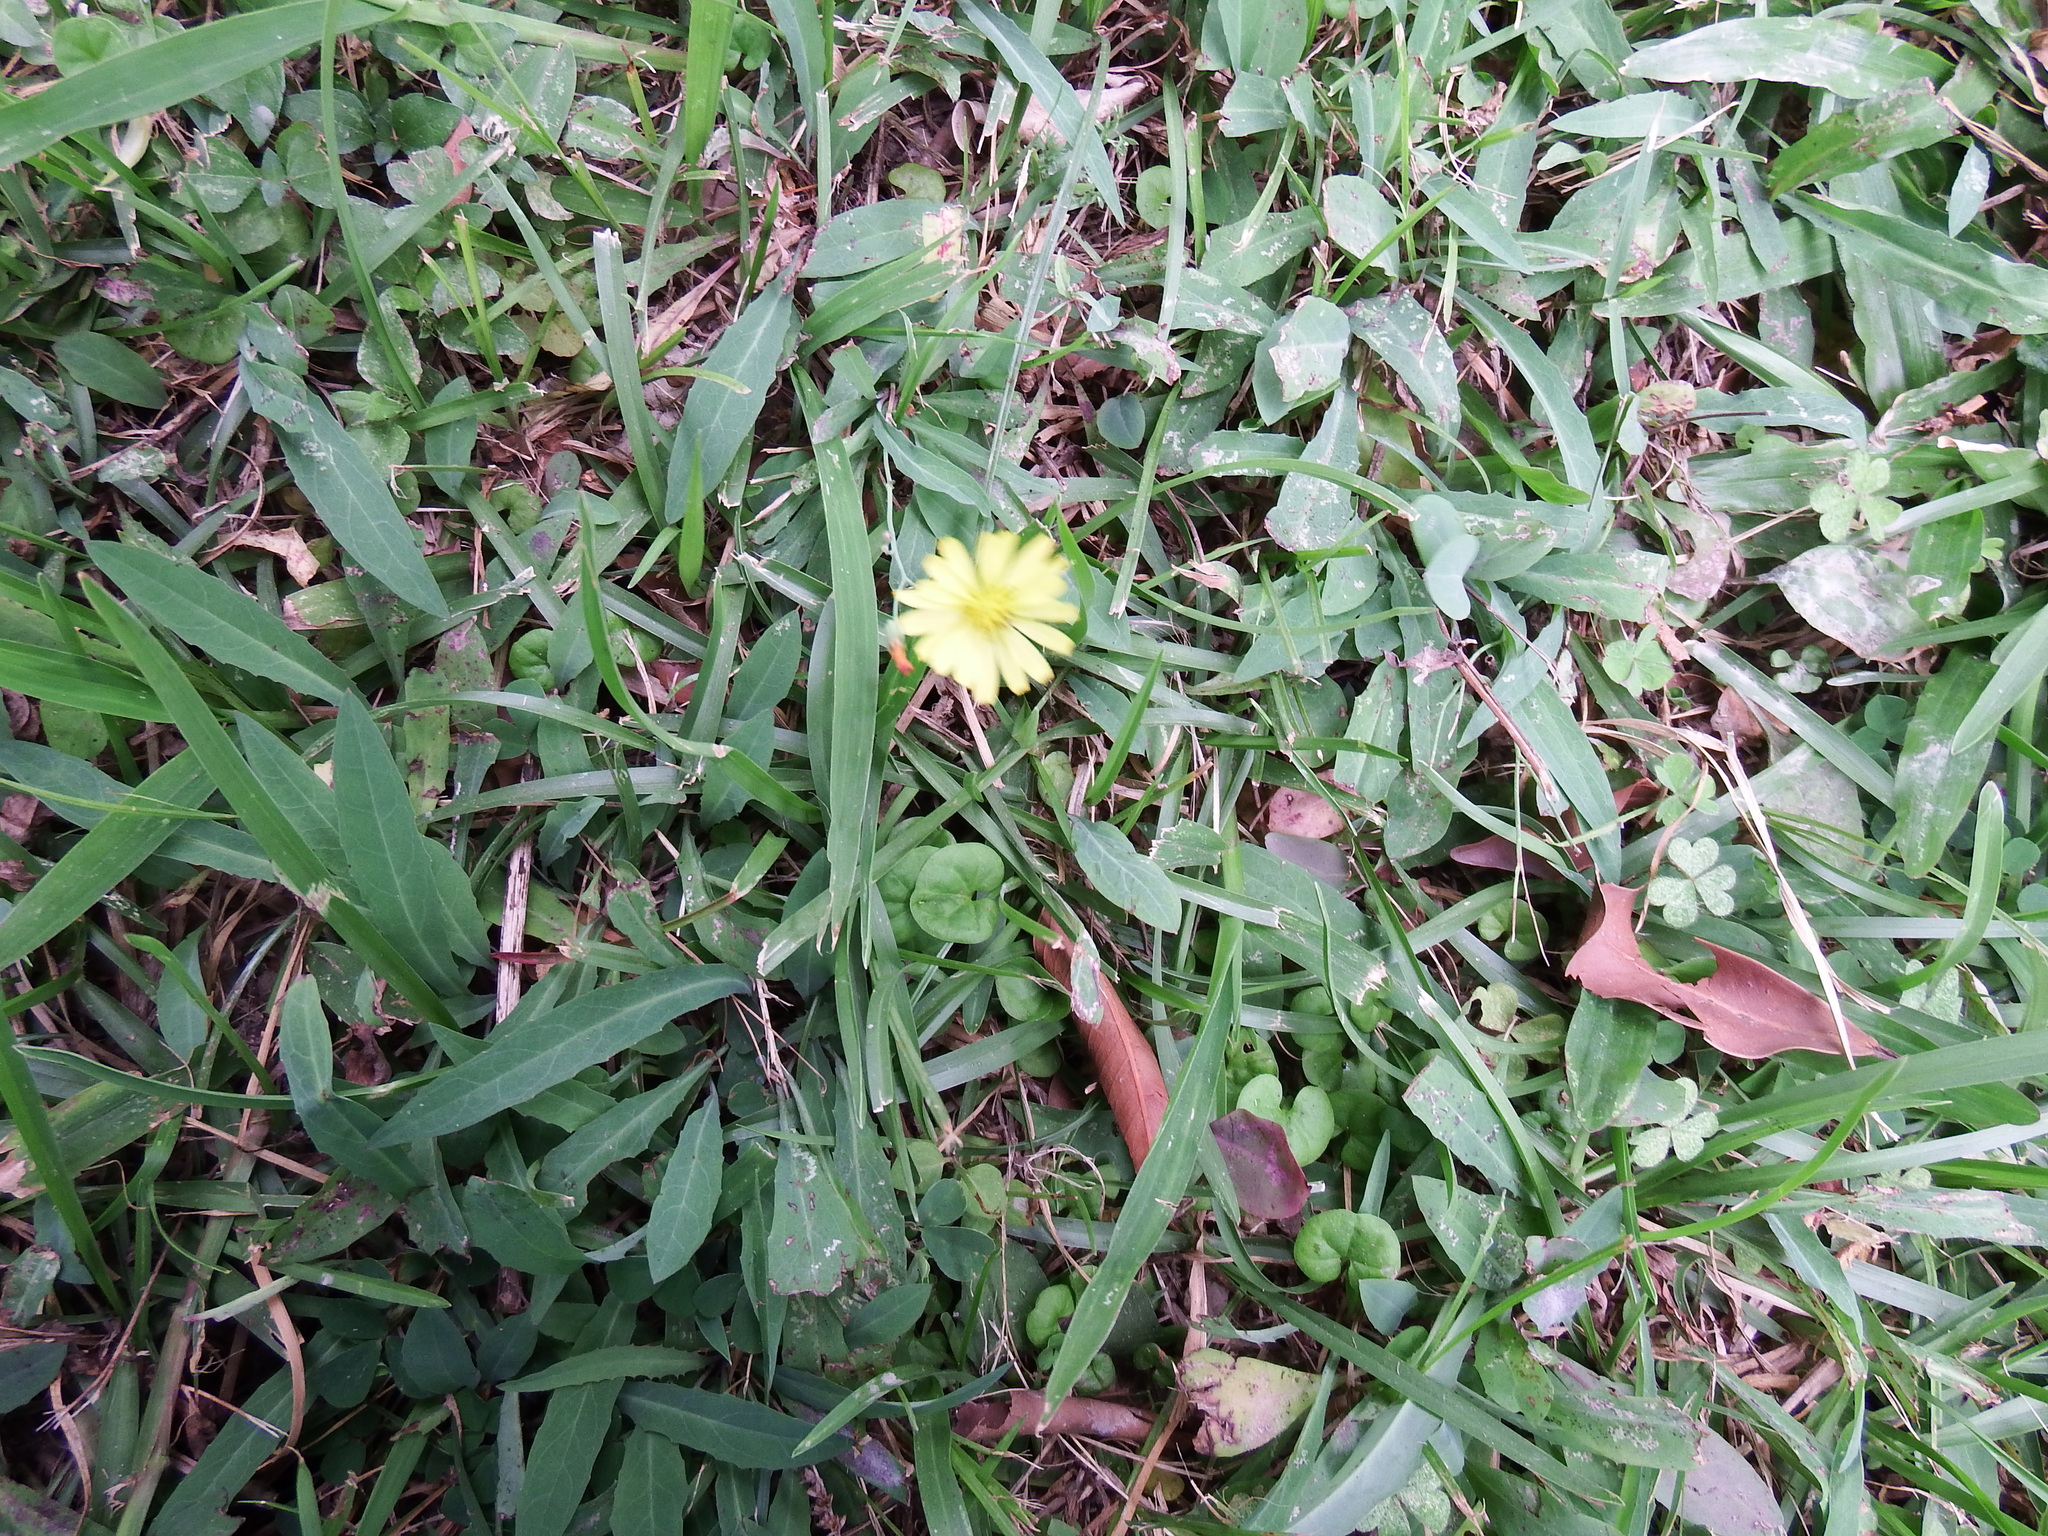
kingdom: Plantae
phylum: Tracheophyta
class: Magnoliopsida
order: Asterales
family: Asteraceae
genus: Ixeris
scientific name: Ixeris chinensis
